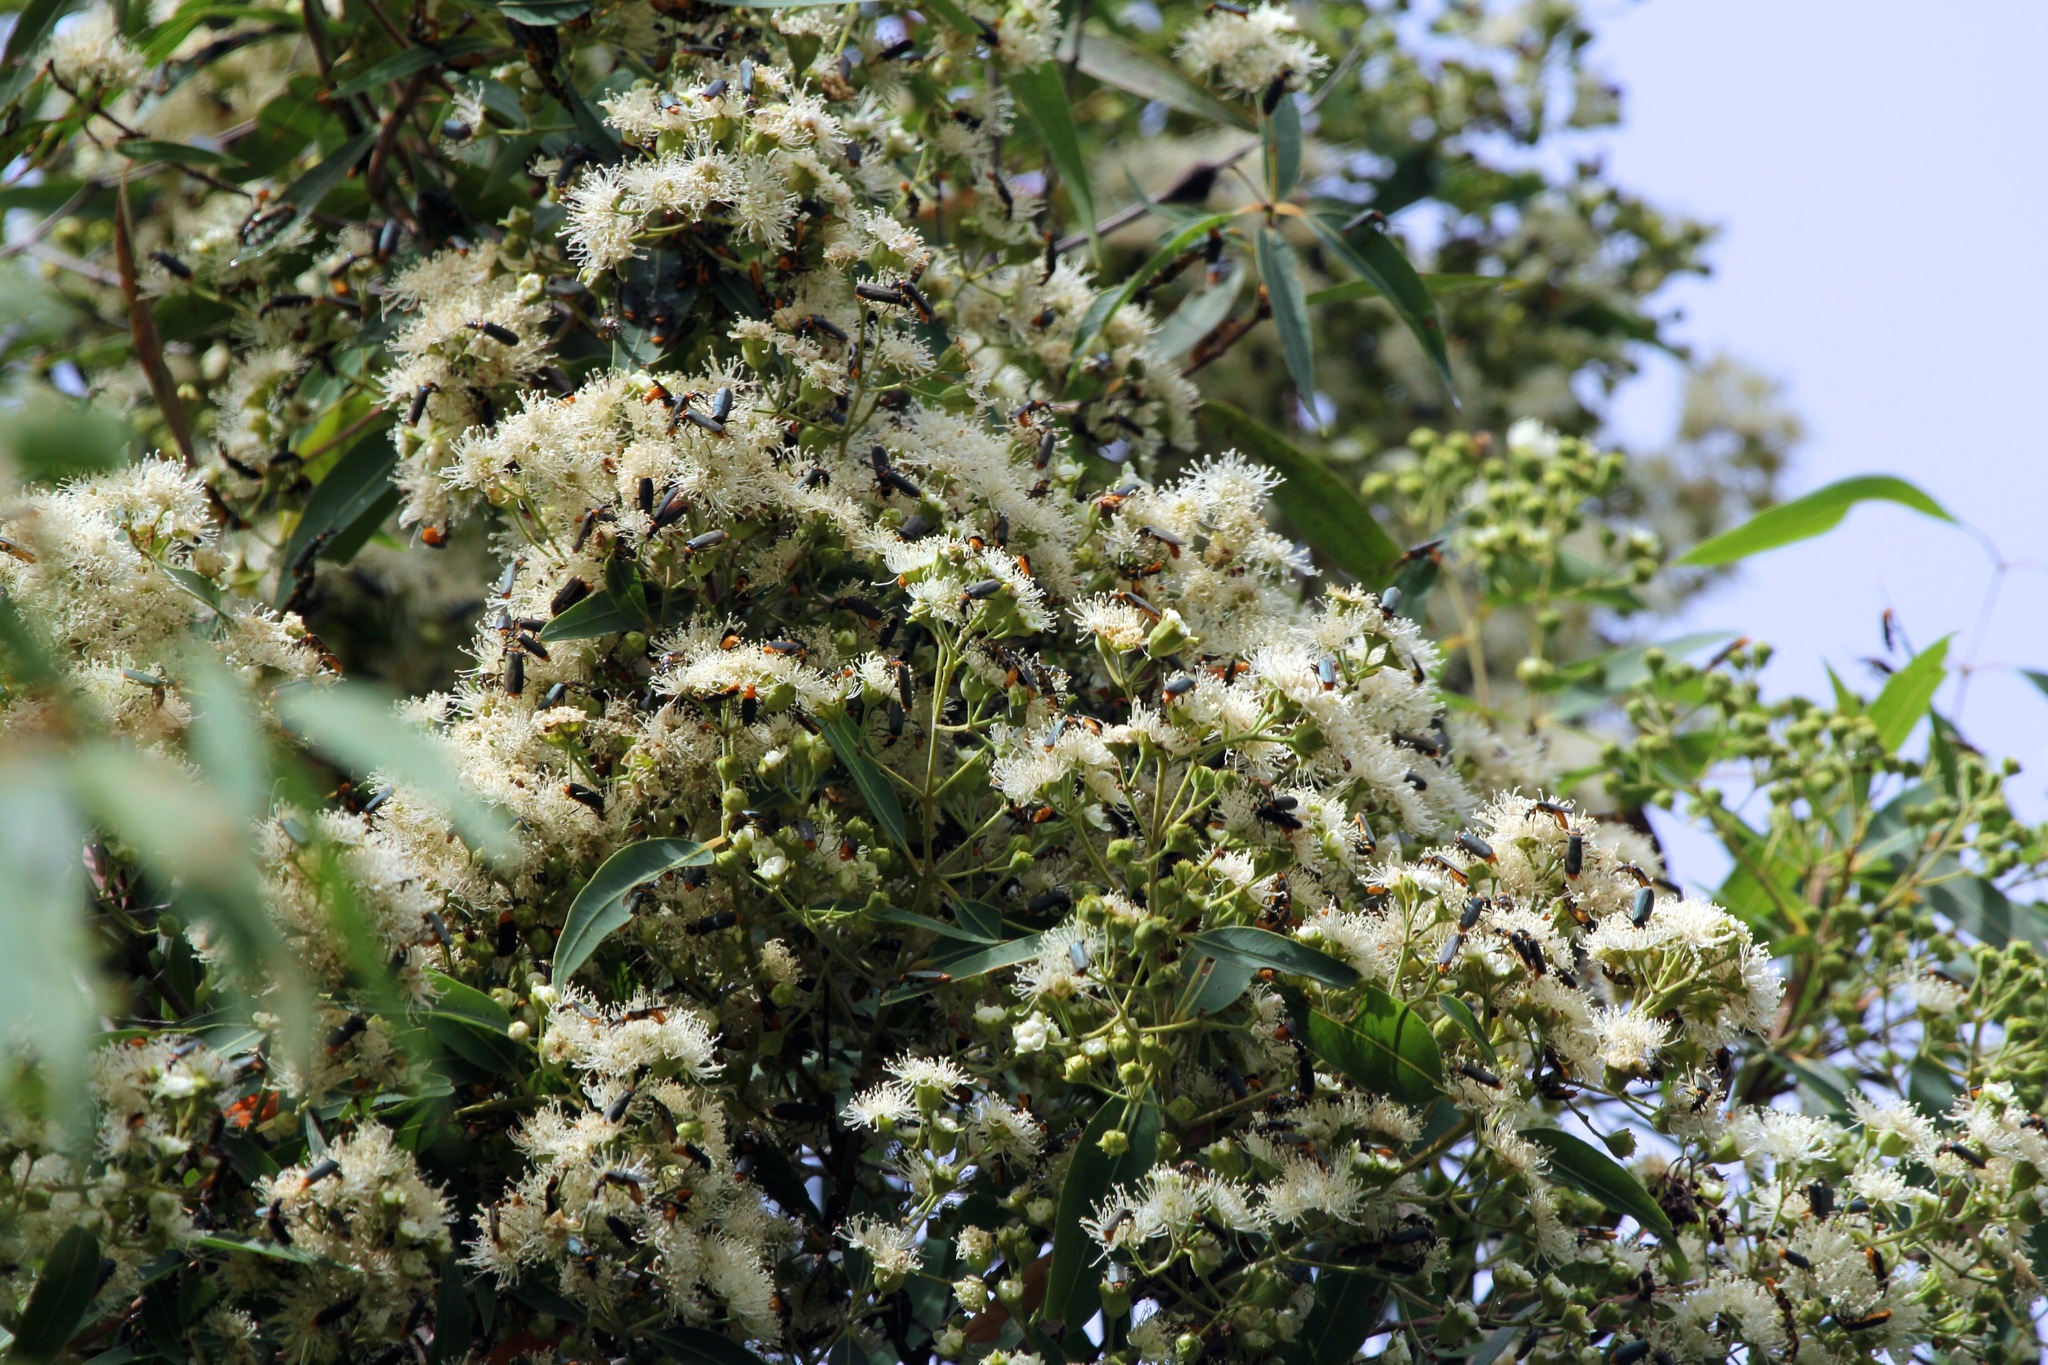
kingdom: Animalia
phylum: Arthropoda
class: Insecta
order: Coleoptera
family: Cantharidae
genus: Chauliognathus
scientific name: Chauliognathus
